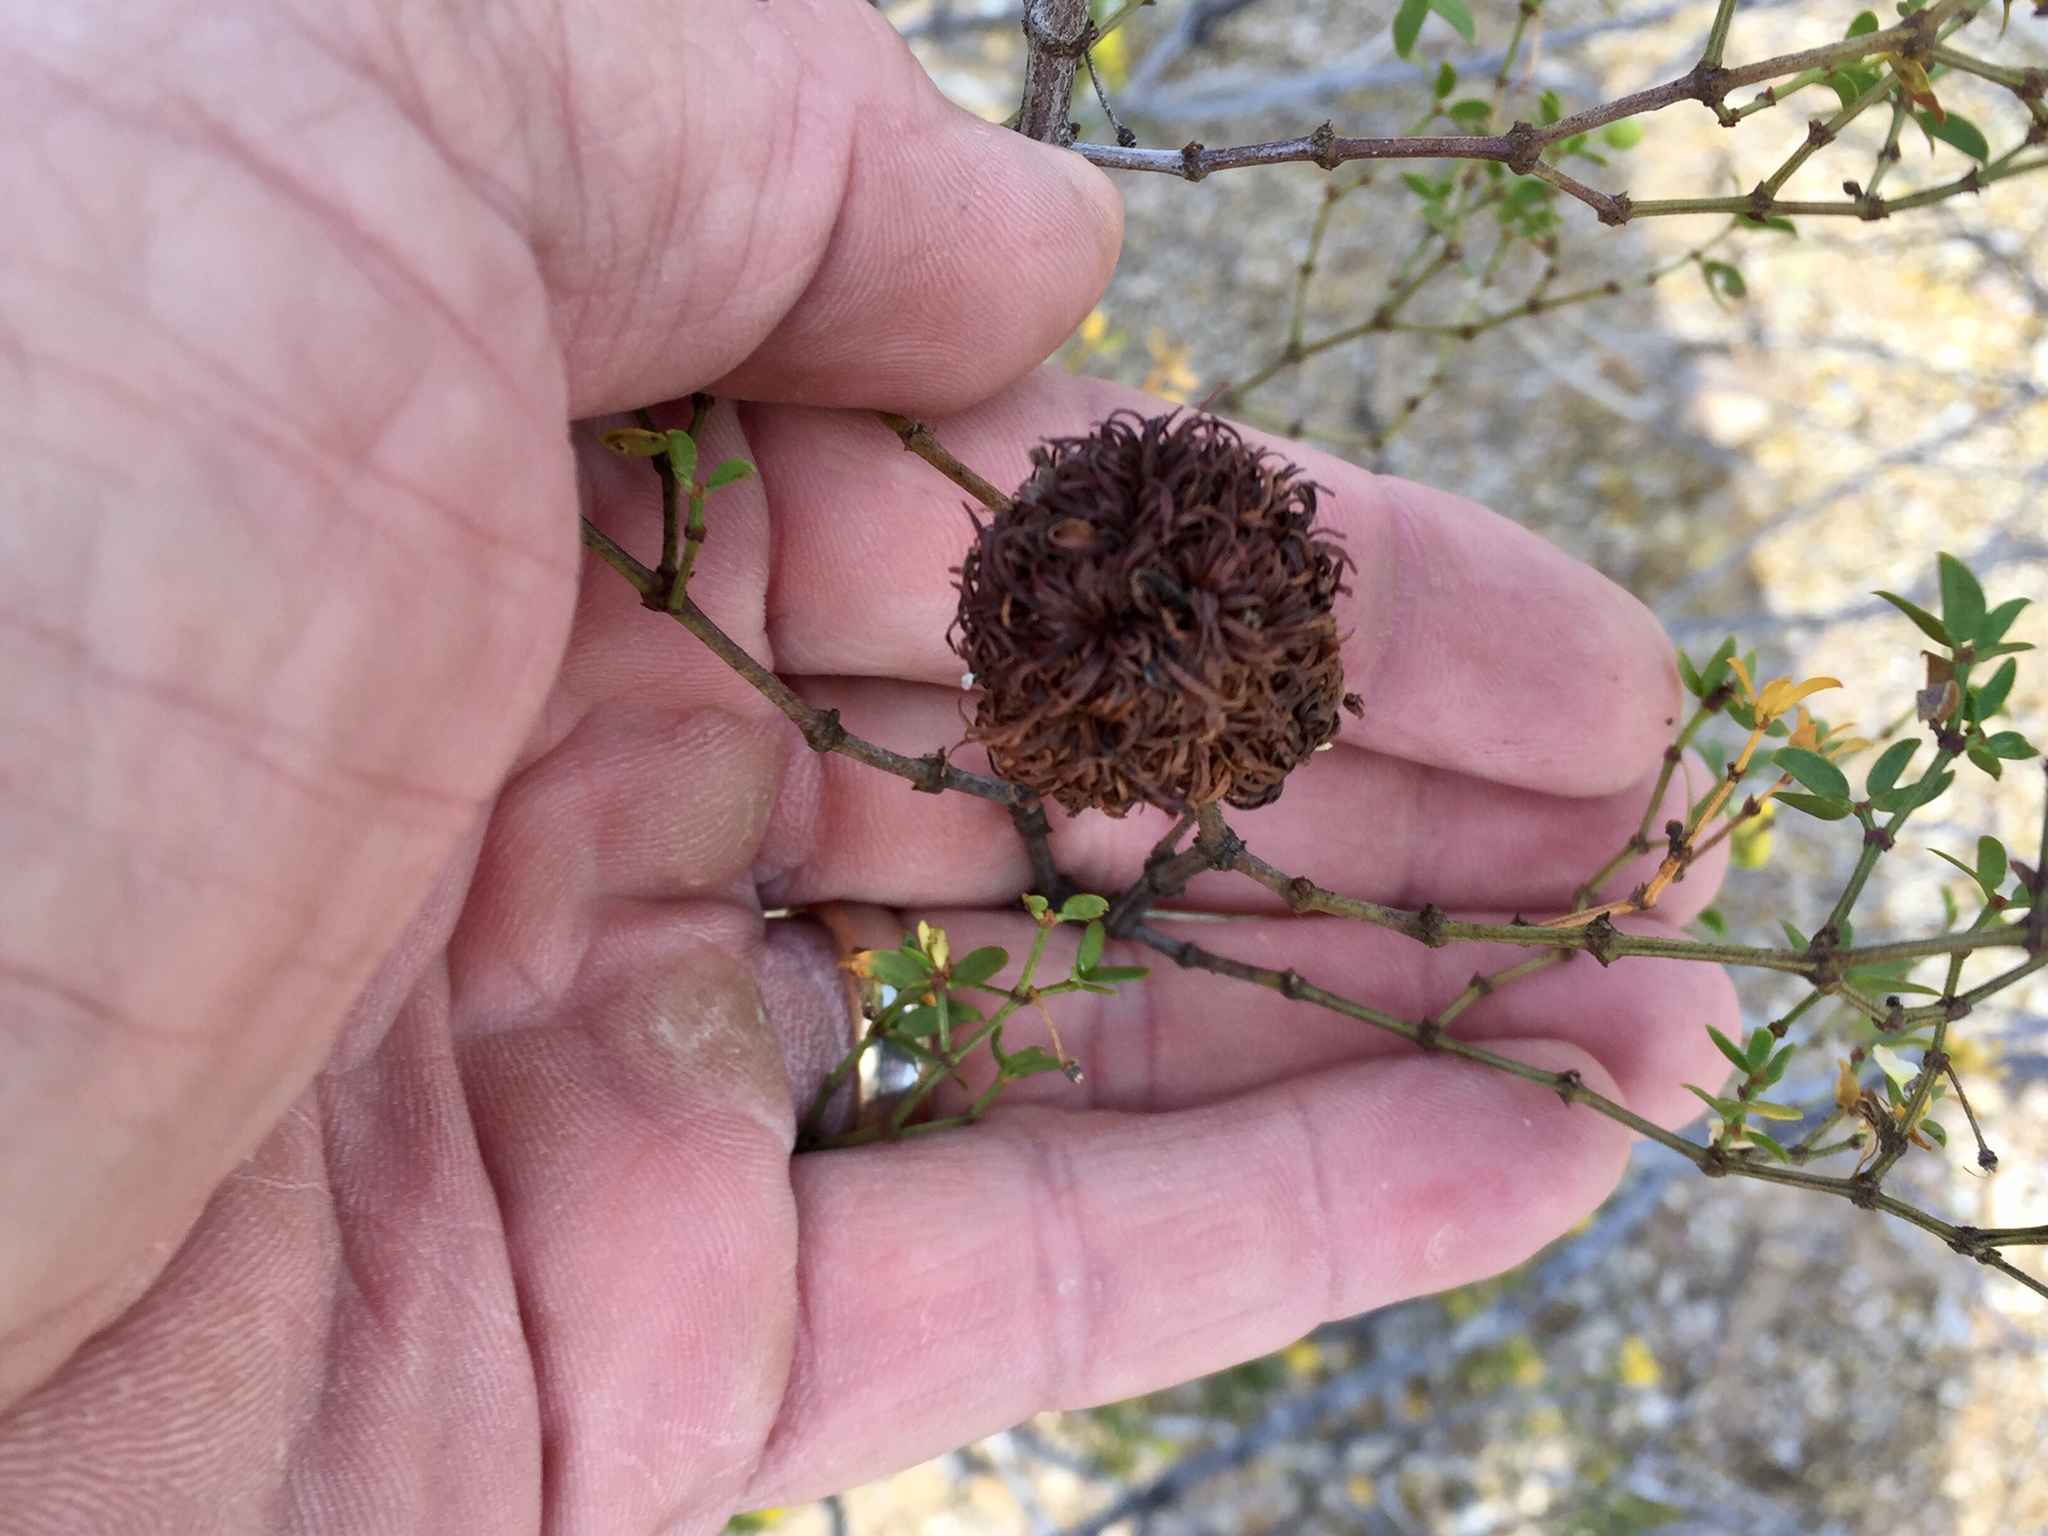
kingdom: Animalia
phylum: Arthropoda
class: Insecta
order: Diptera
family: Cecidomyiidae
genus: Asphondylia
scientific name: Asphondylia auripila
